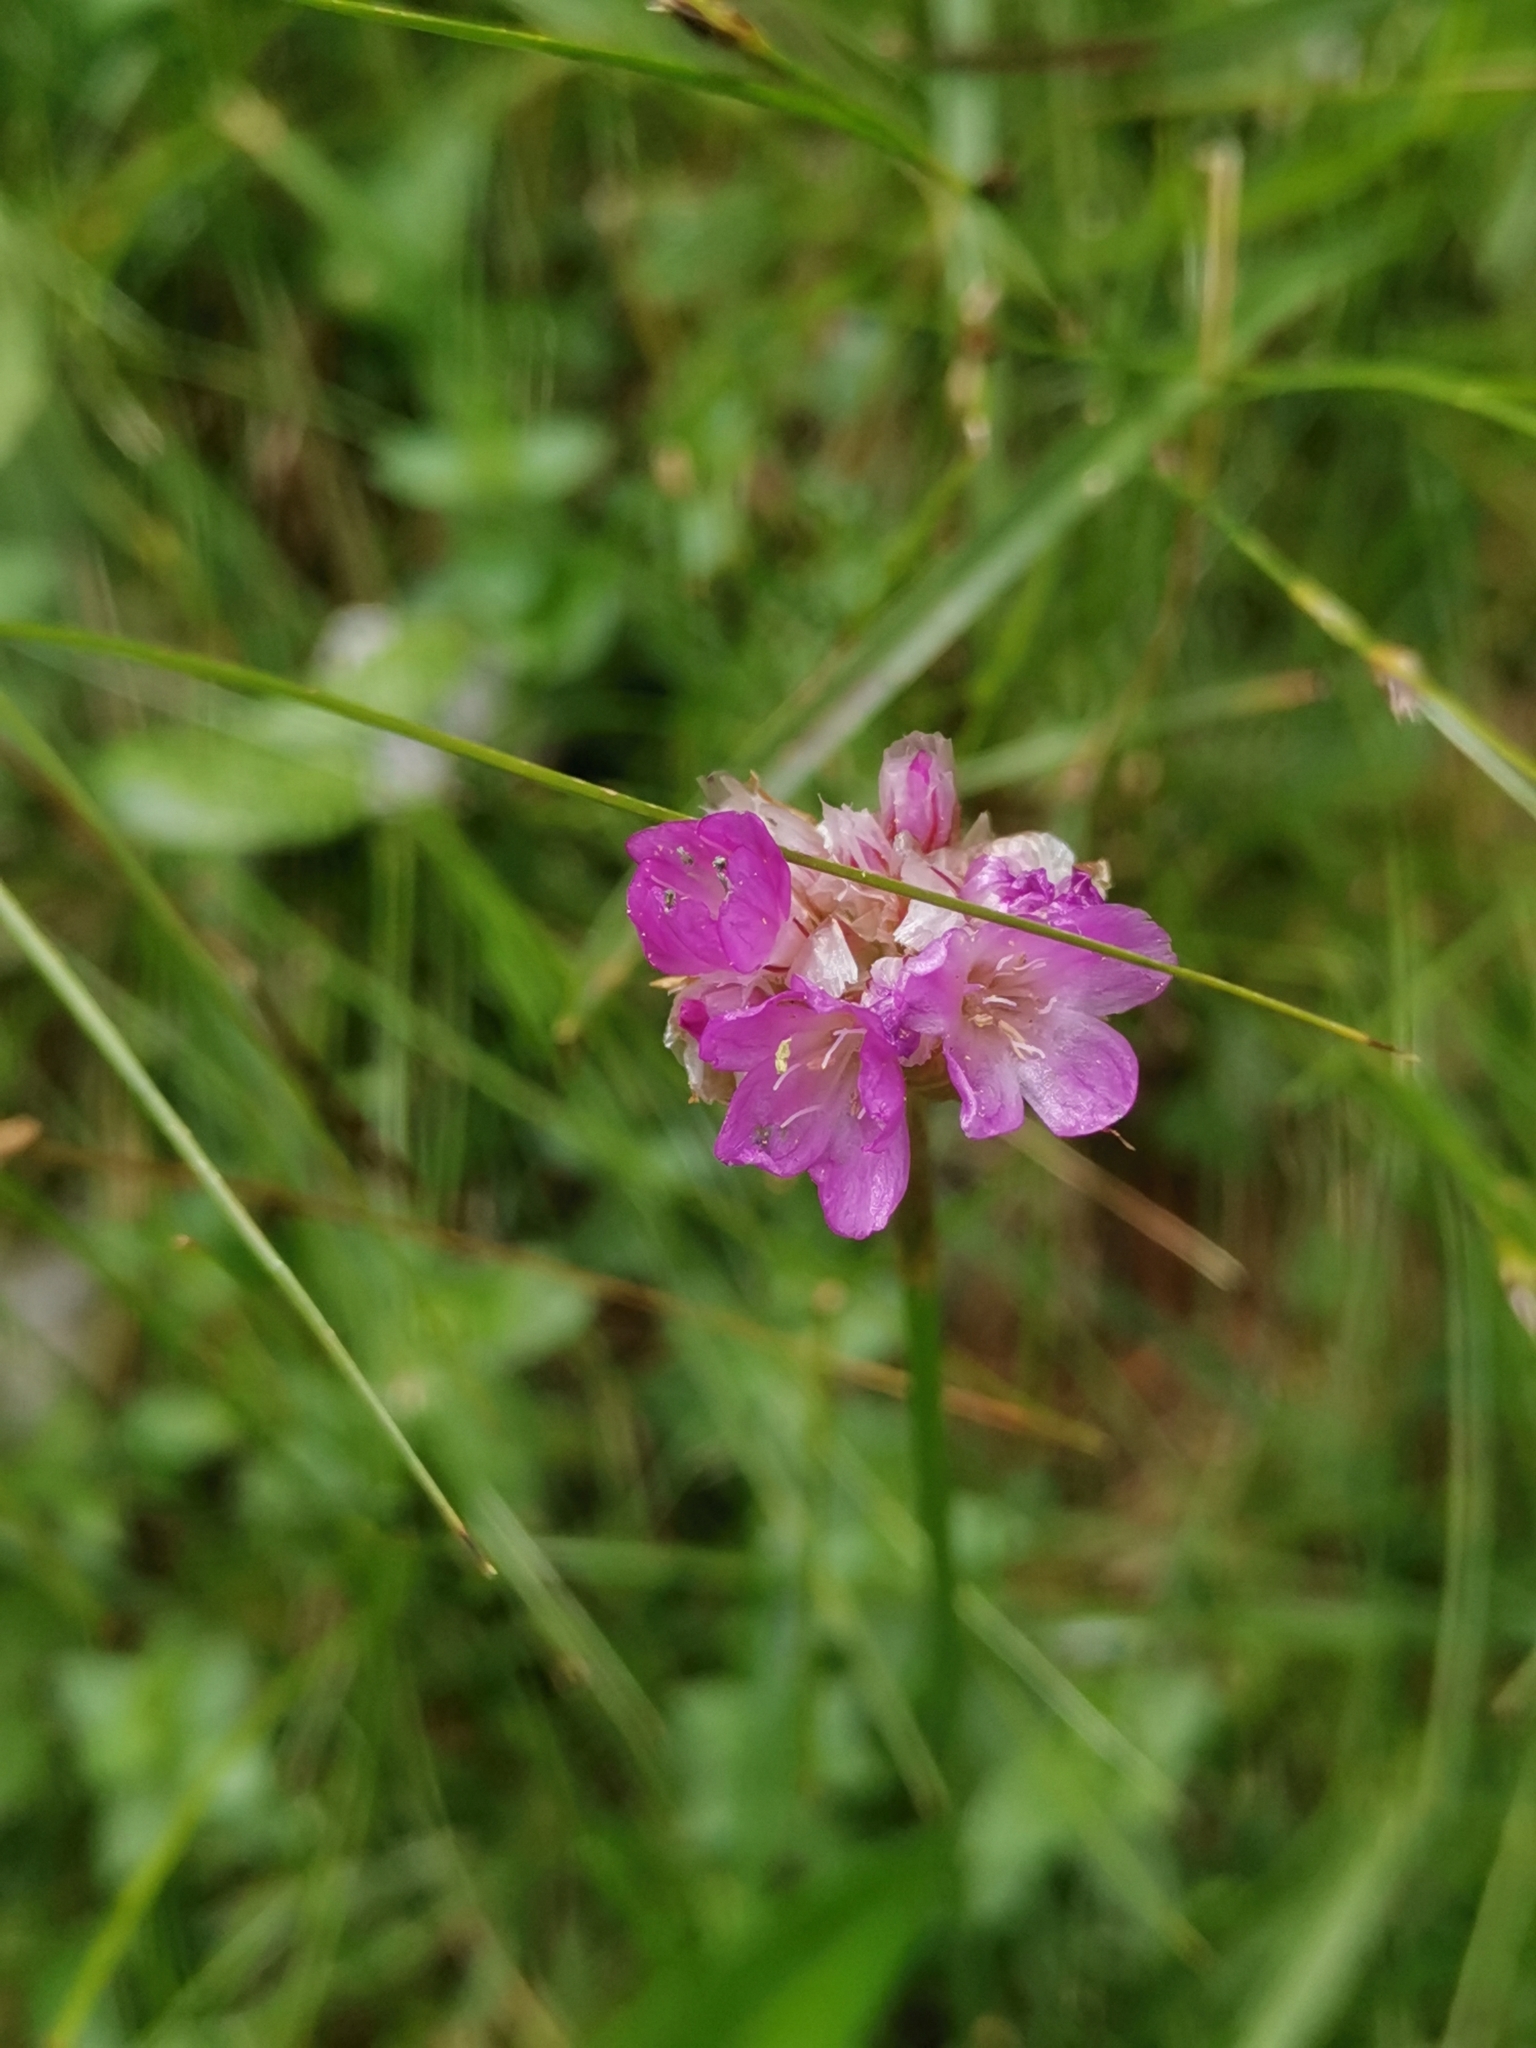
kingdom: Plantae
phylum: Tracheophyta
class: Magnoliopsida
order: Caryophyllales
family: Plumbaginaceae
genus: Armeria
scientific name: Armeria alpina
